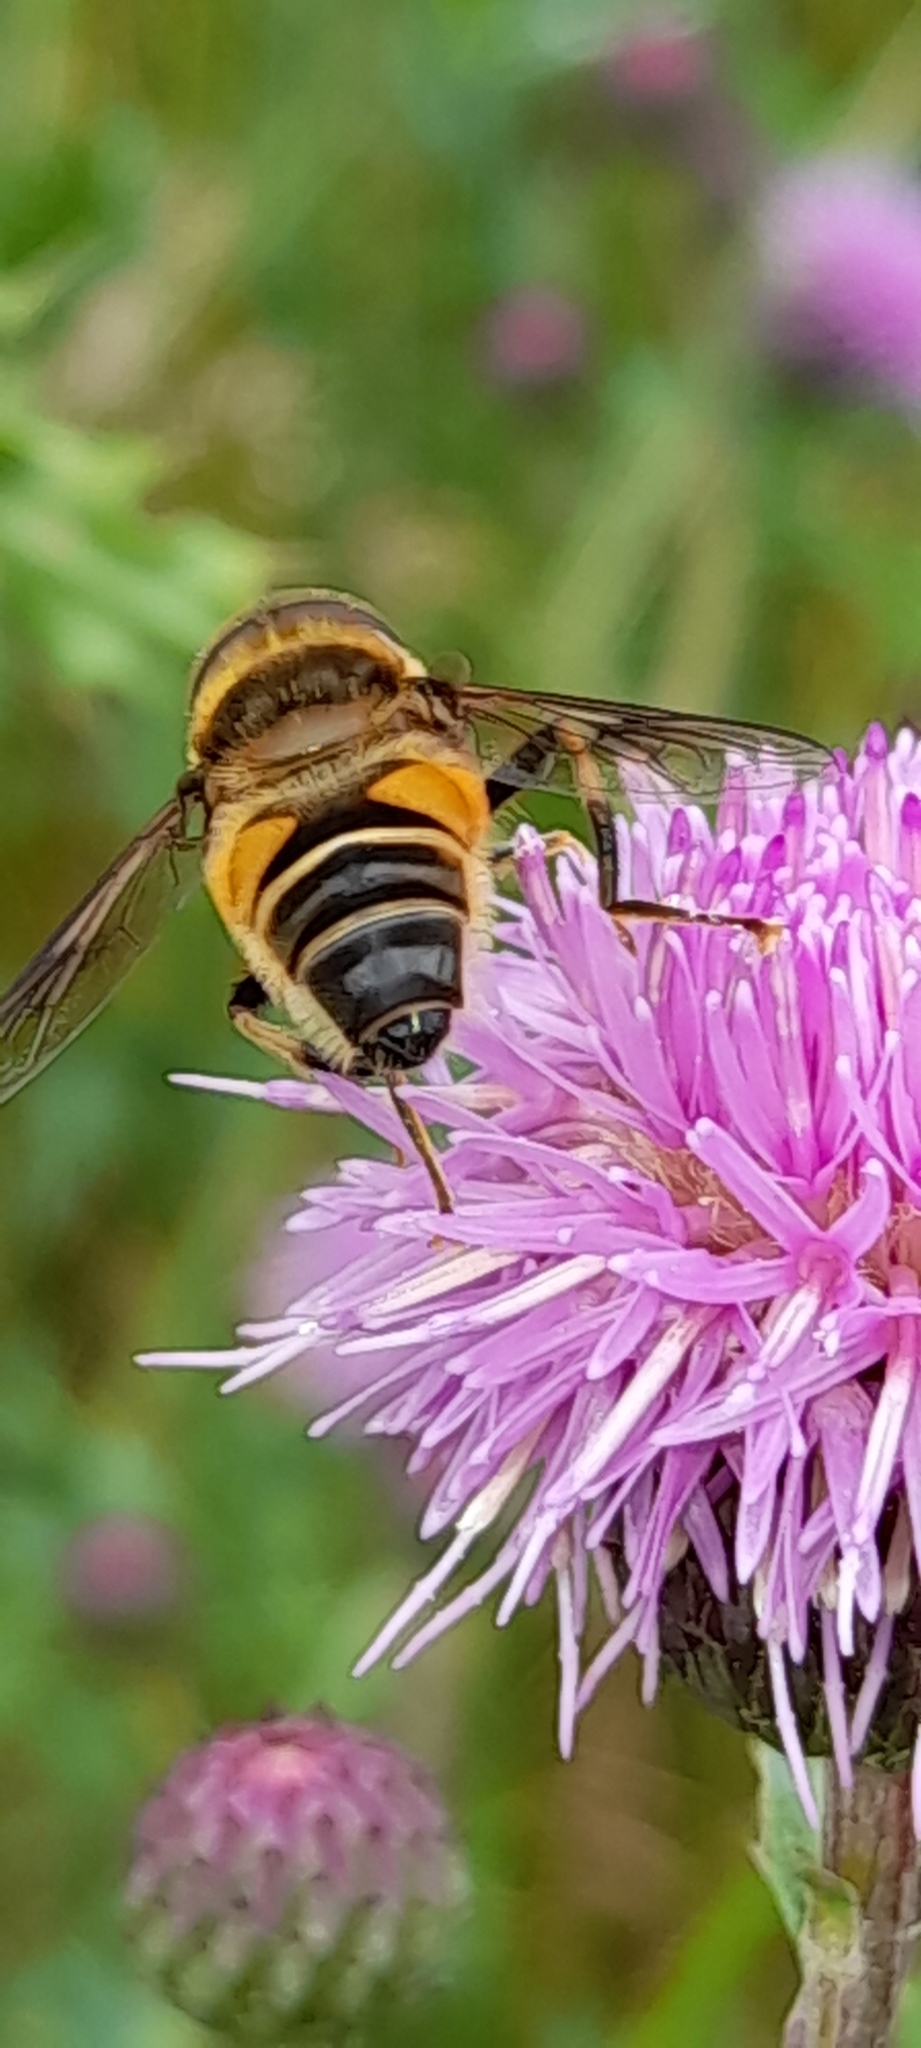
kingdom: Animalia
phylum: Arthropoda
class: Insecta
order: Diptera
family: Syrphidae
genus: Eristalis
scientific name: Eristalis pertinax
